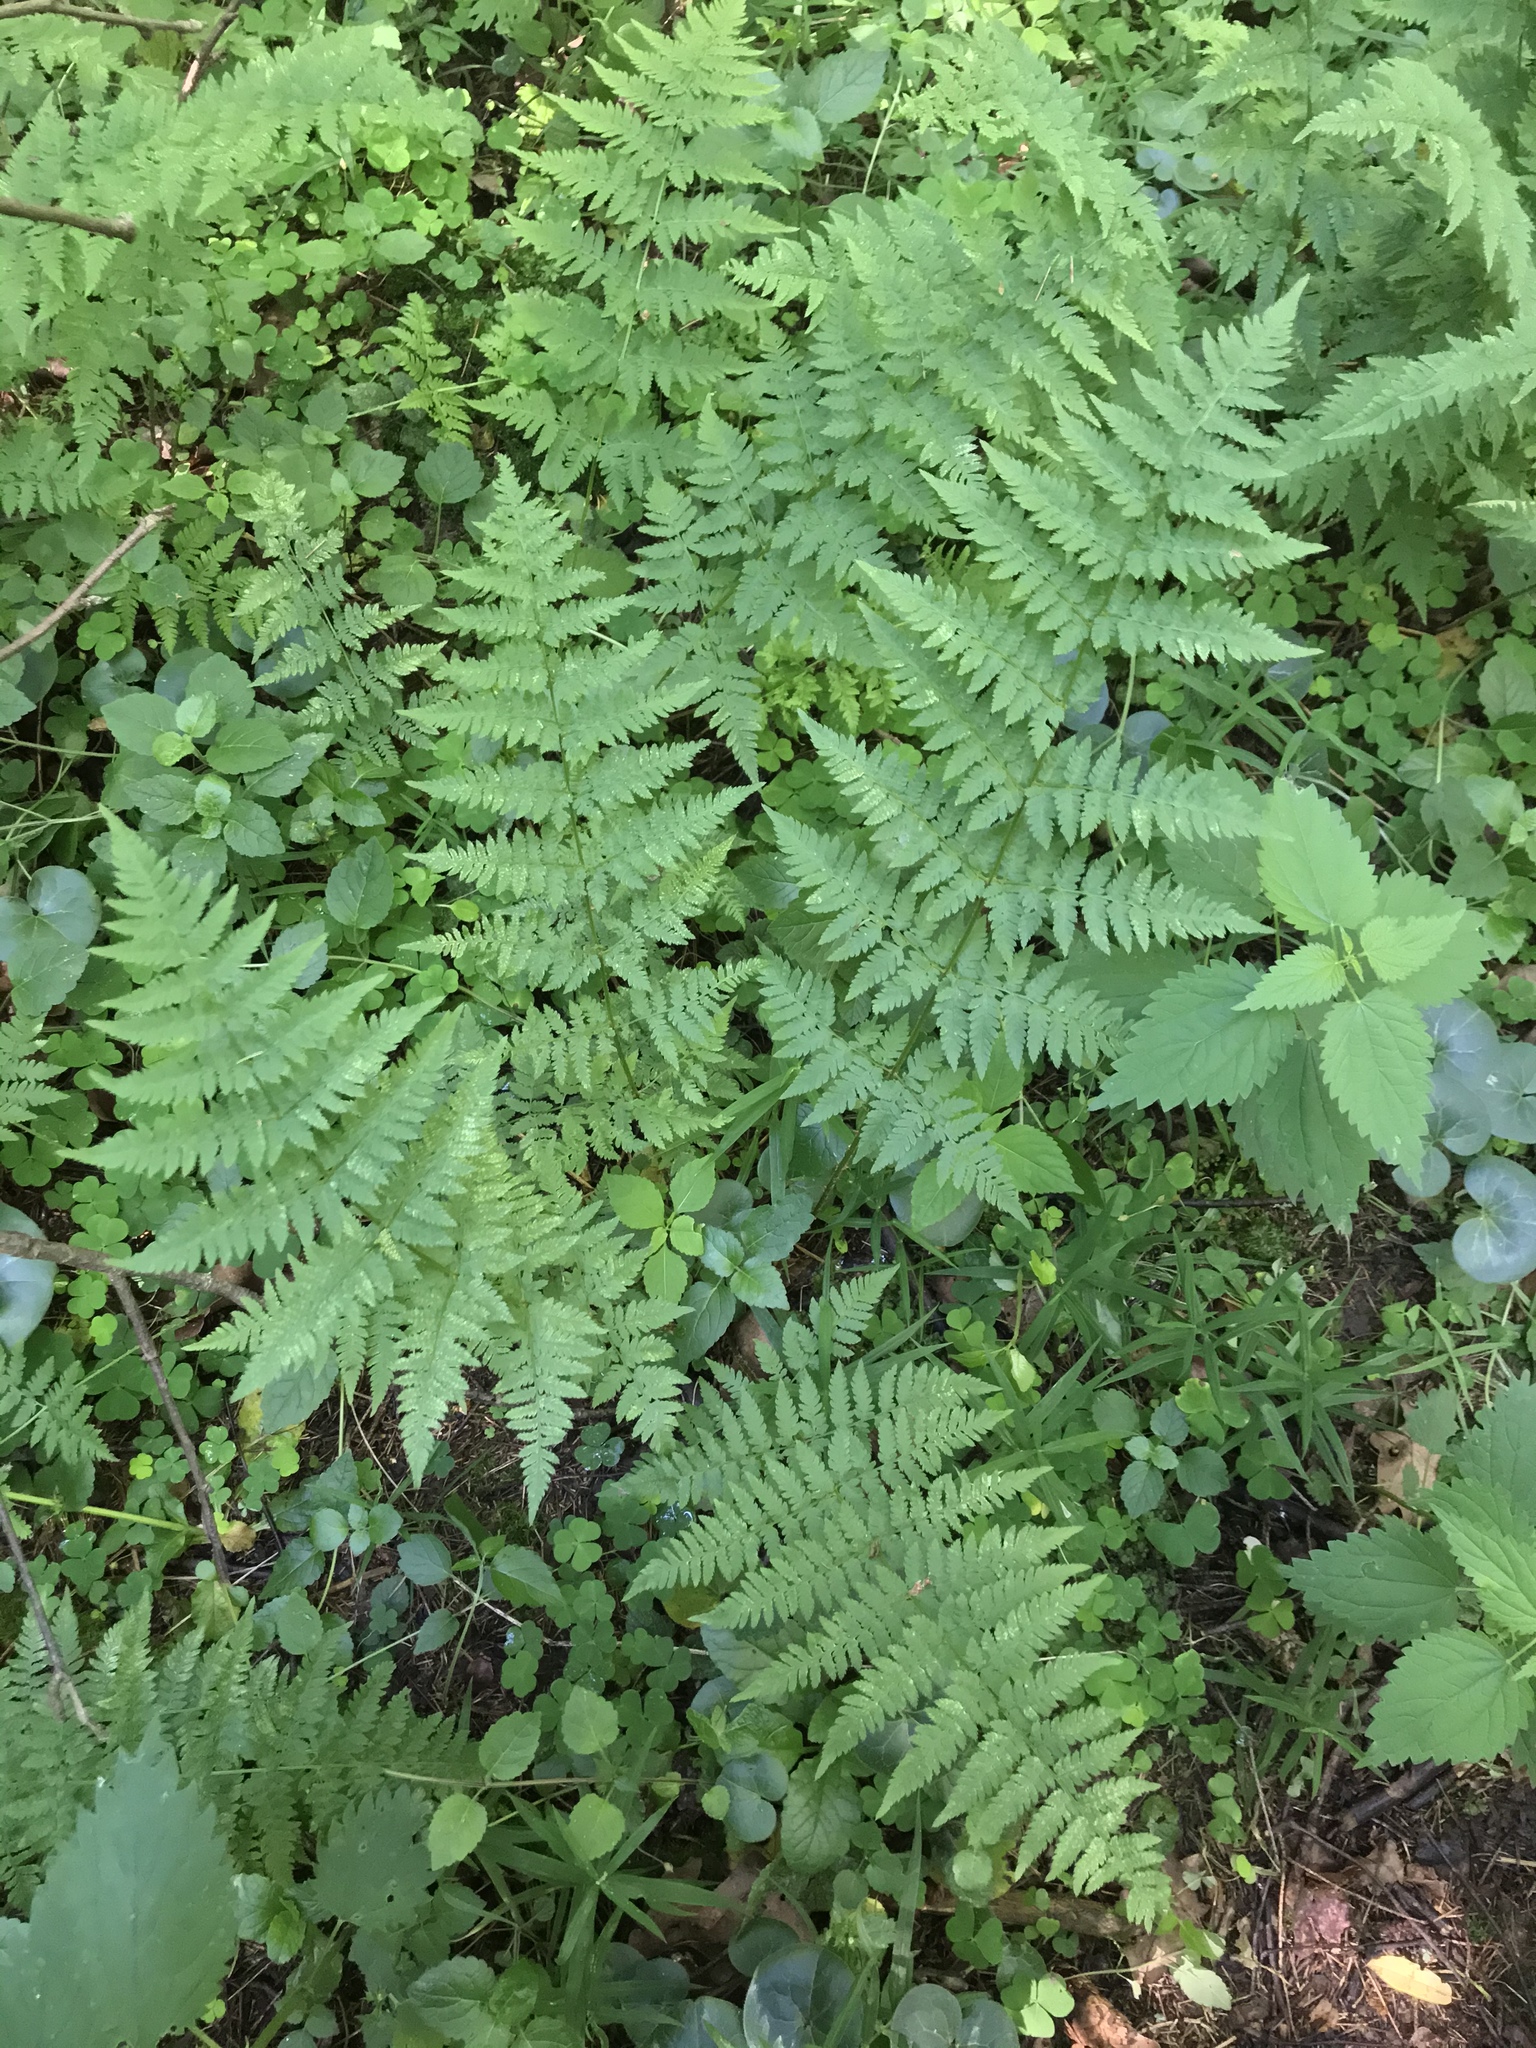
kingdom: Plantae
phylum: Tracheophyta
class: Polypodiopsida
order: Polypodiales
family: Dryopteridaceae
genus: Dryopteris
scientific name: Dryopteris carthusiana
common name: Narrow buckler-fern
